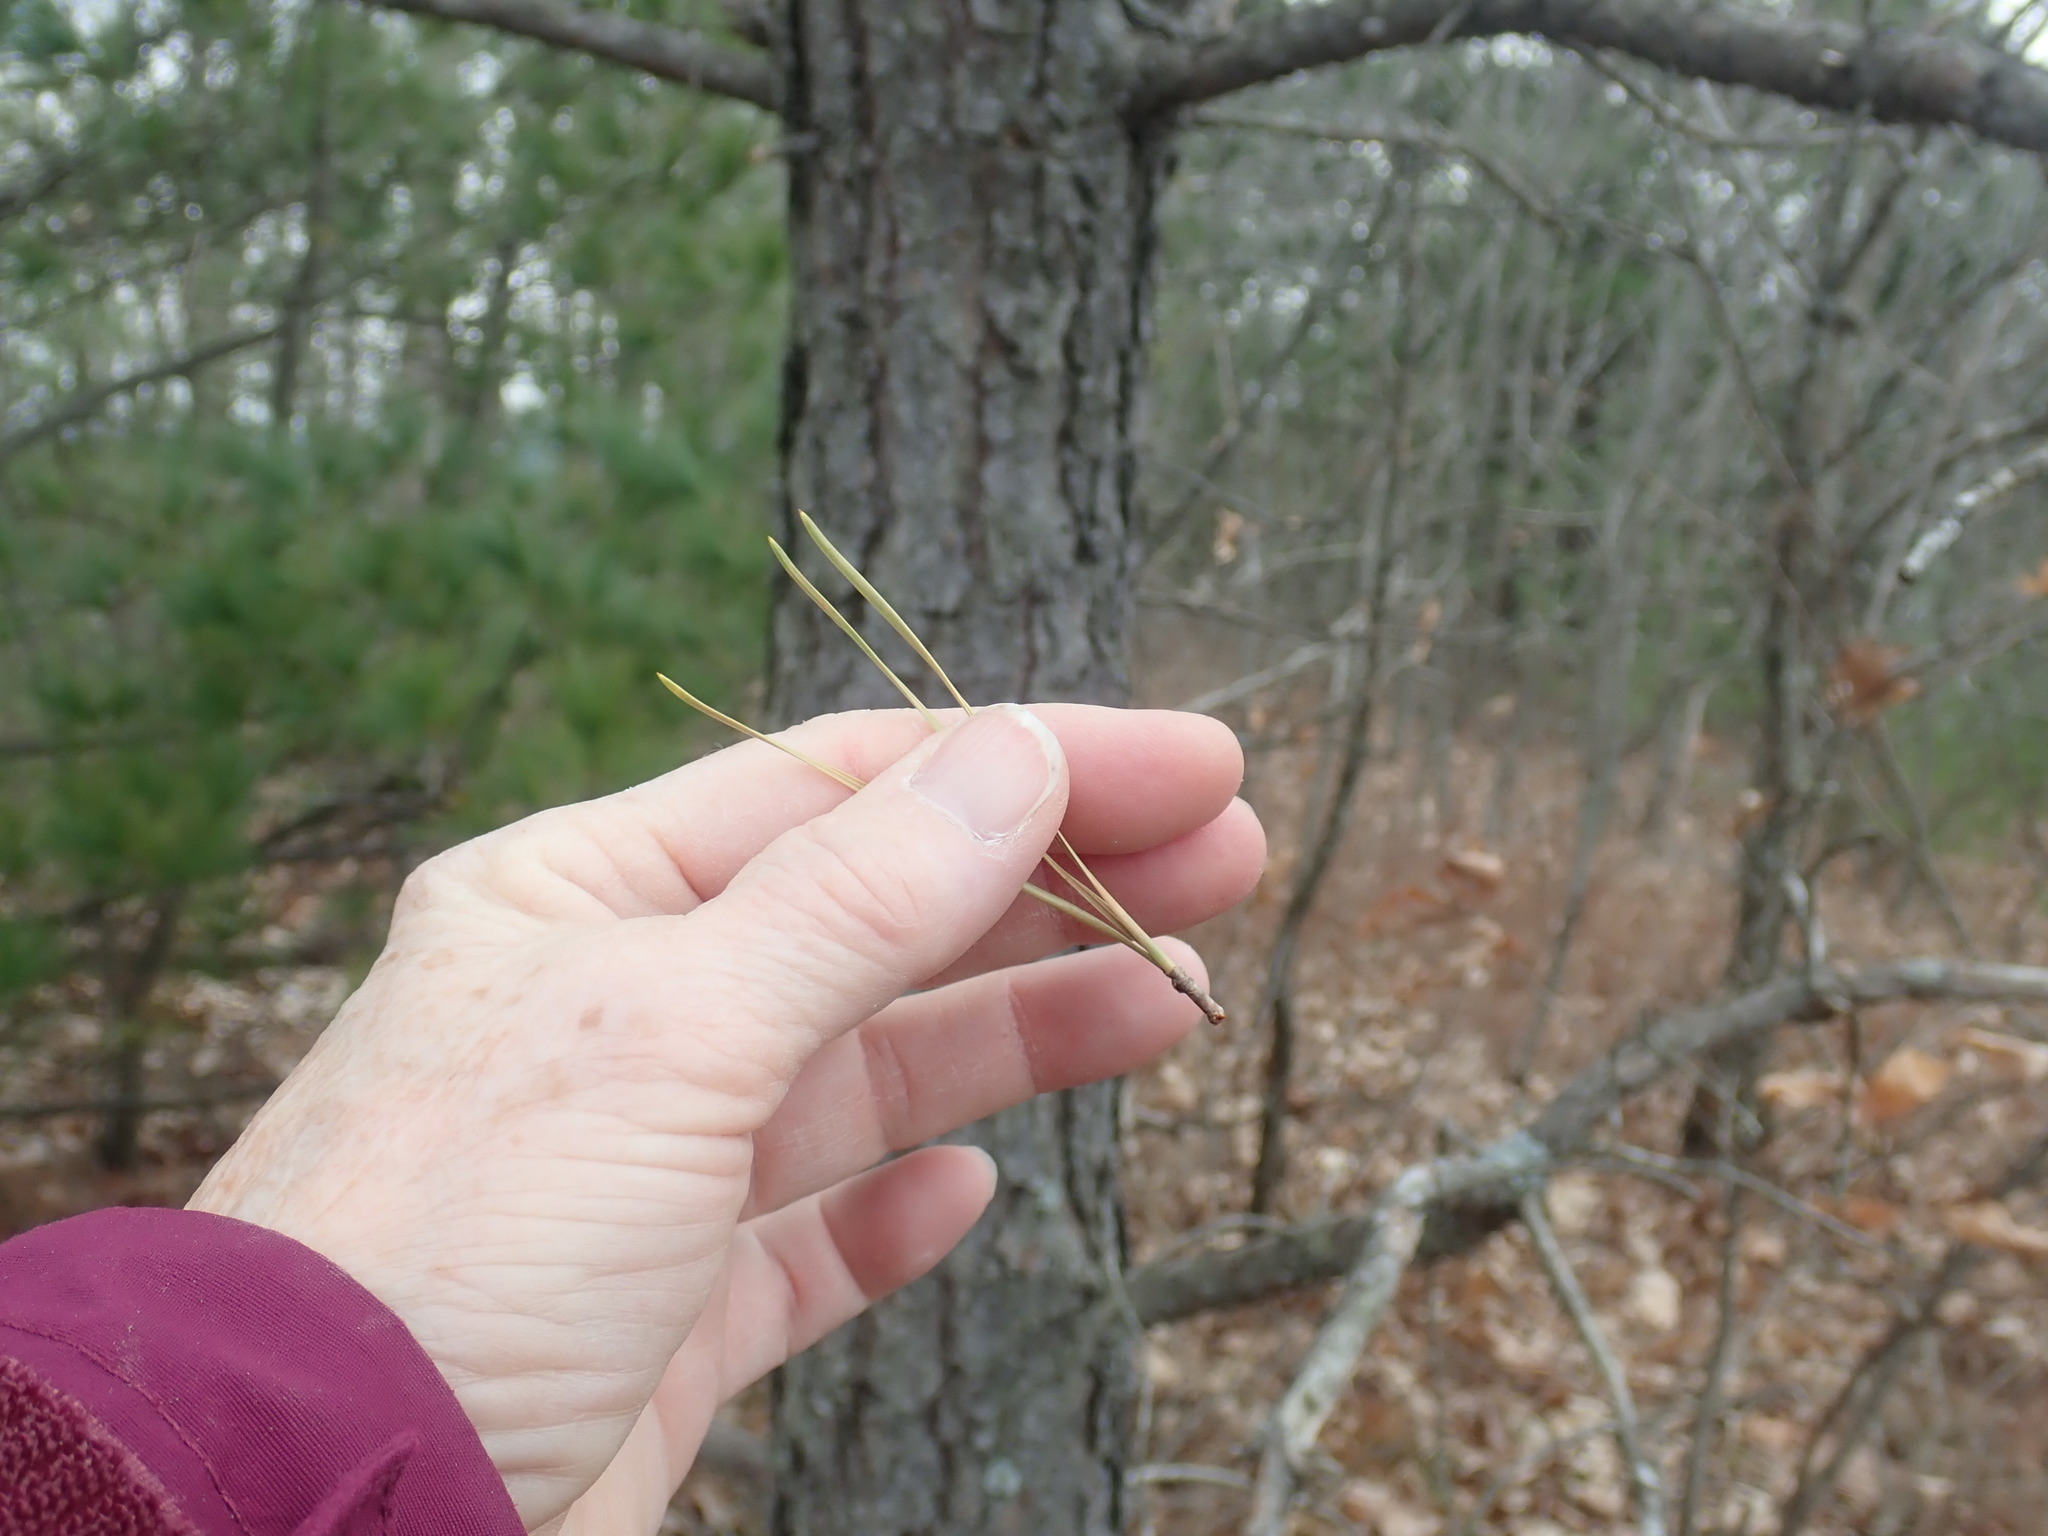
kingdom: Plantae
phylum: Tracheophyta
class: Pinopsida
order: Pinales
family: Pinaceae
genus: Pinus
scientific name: Pinus rigida
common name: Pitch pine
